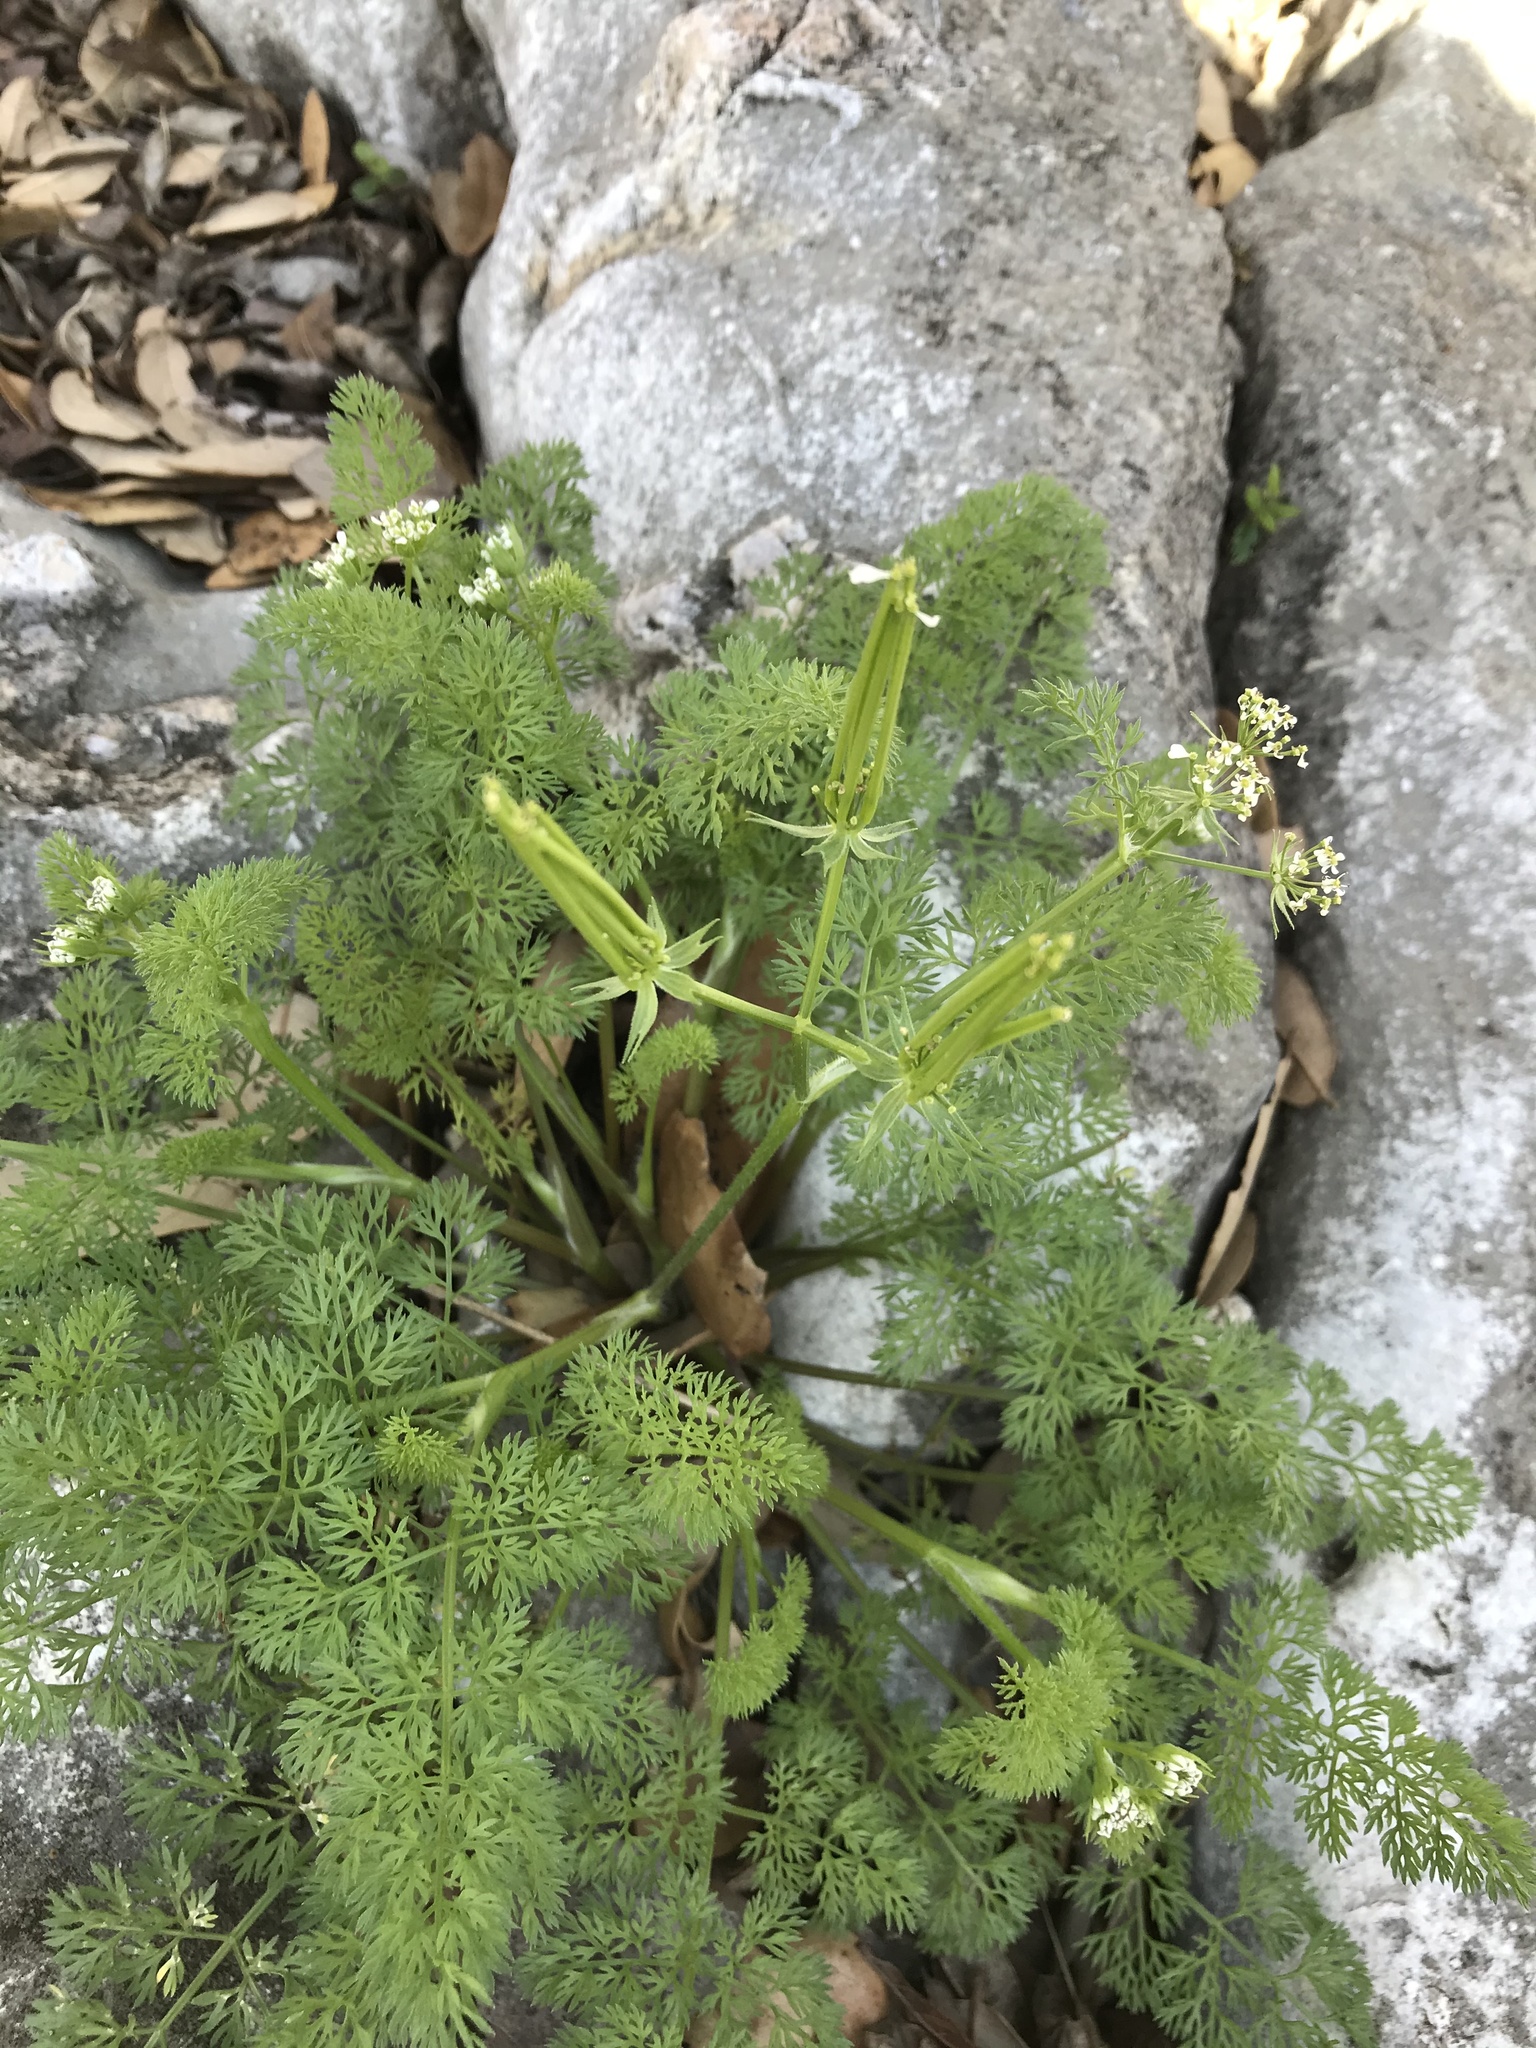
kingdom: Plantae
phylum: Tracheophyta
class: Magnoliopsida
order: Apiales
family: Apiaceae
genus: Scandix
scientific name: Scandix pecten-veneris
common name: Shepherd's-needle
